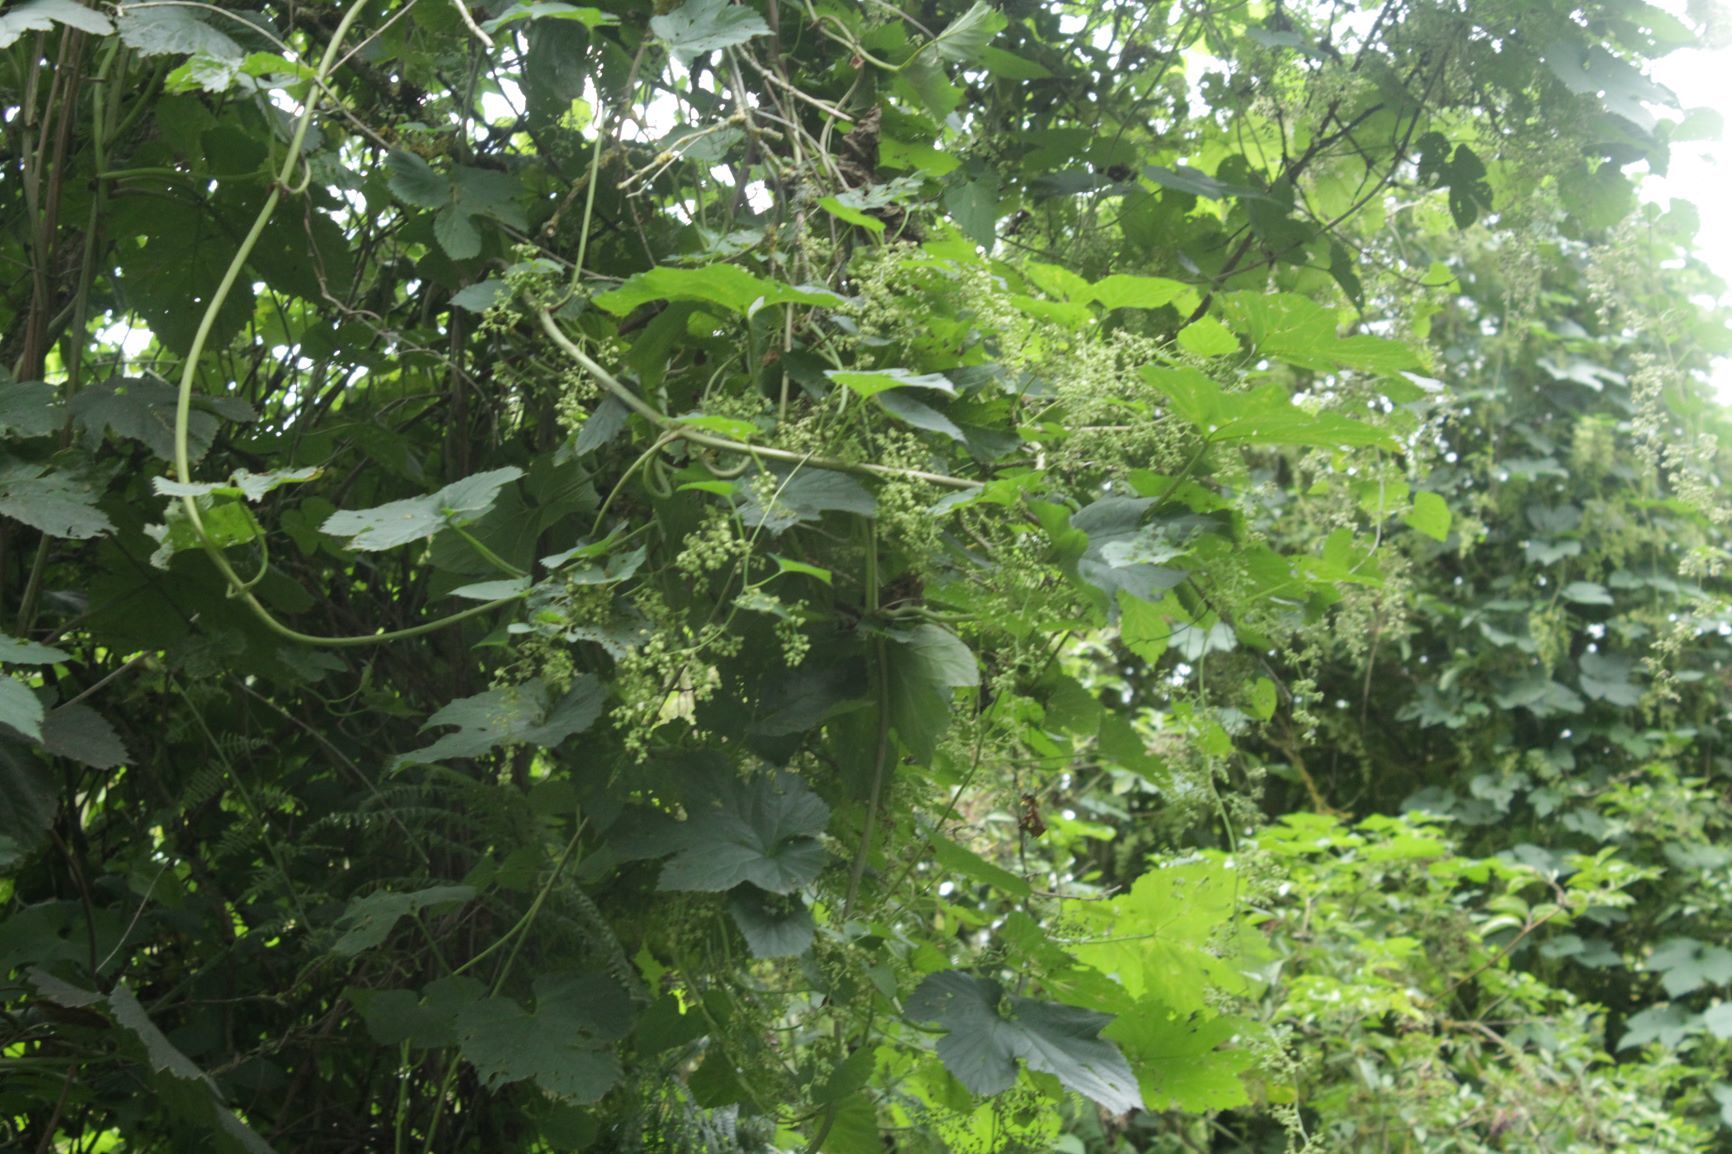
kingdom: Plantae
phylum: Tracheophyta
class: Magnoliopsida
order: Rosales
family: Cannabaceae
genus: Humulus
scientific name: Humulus lupulus
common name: Hop
